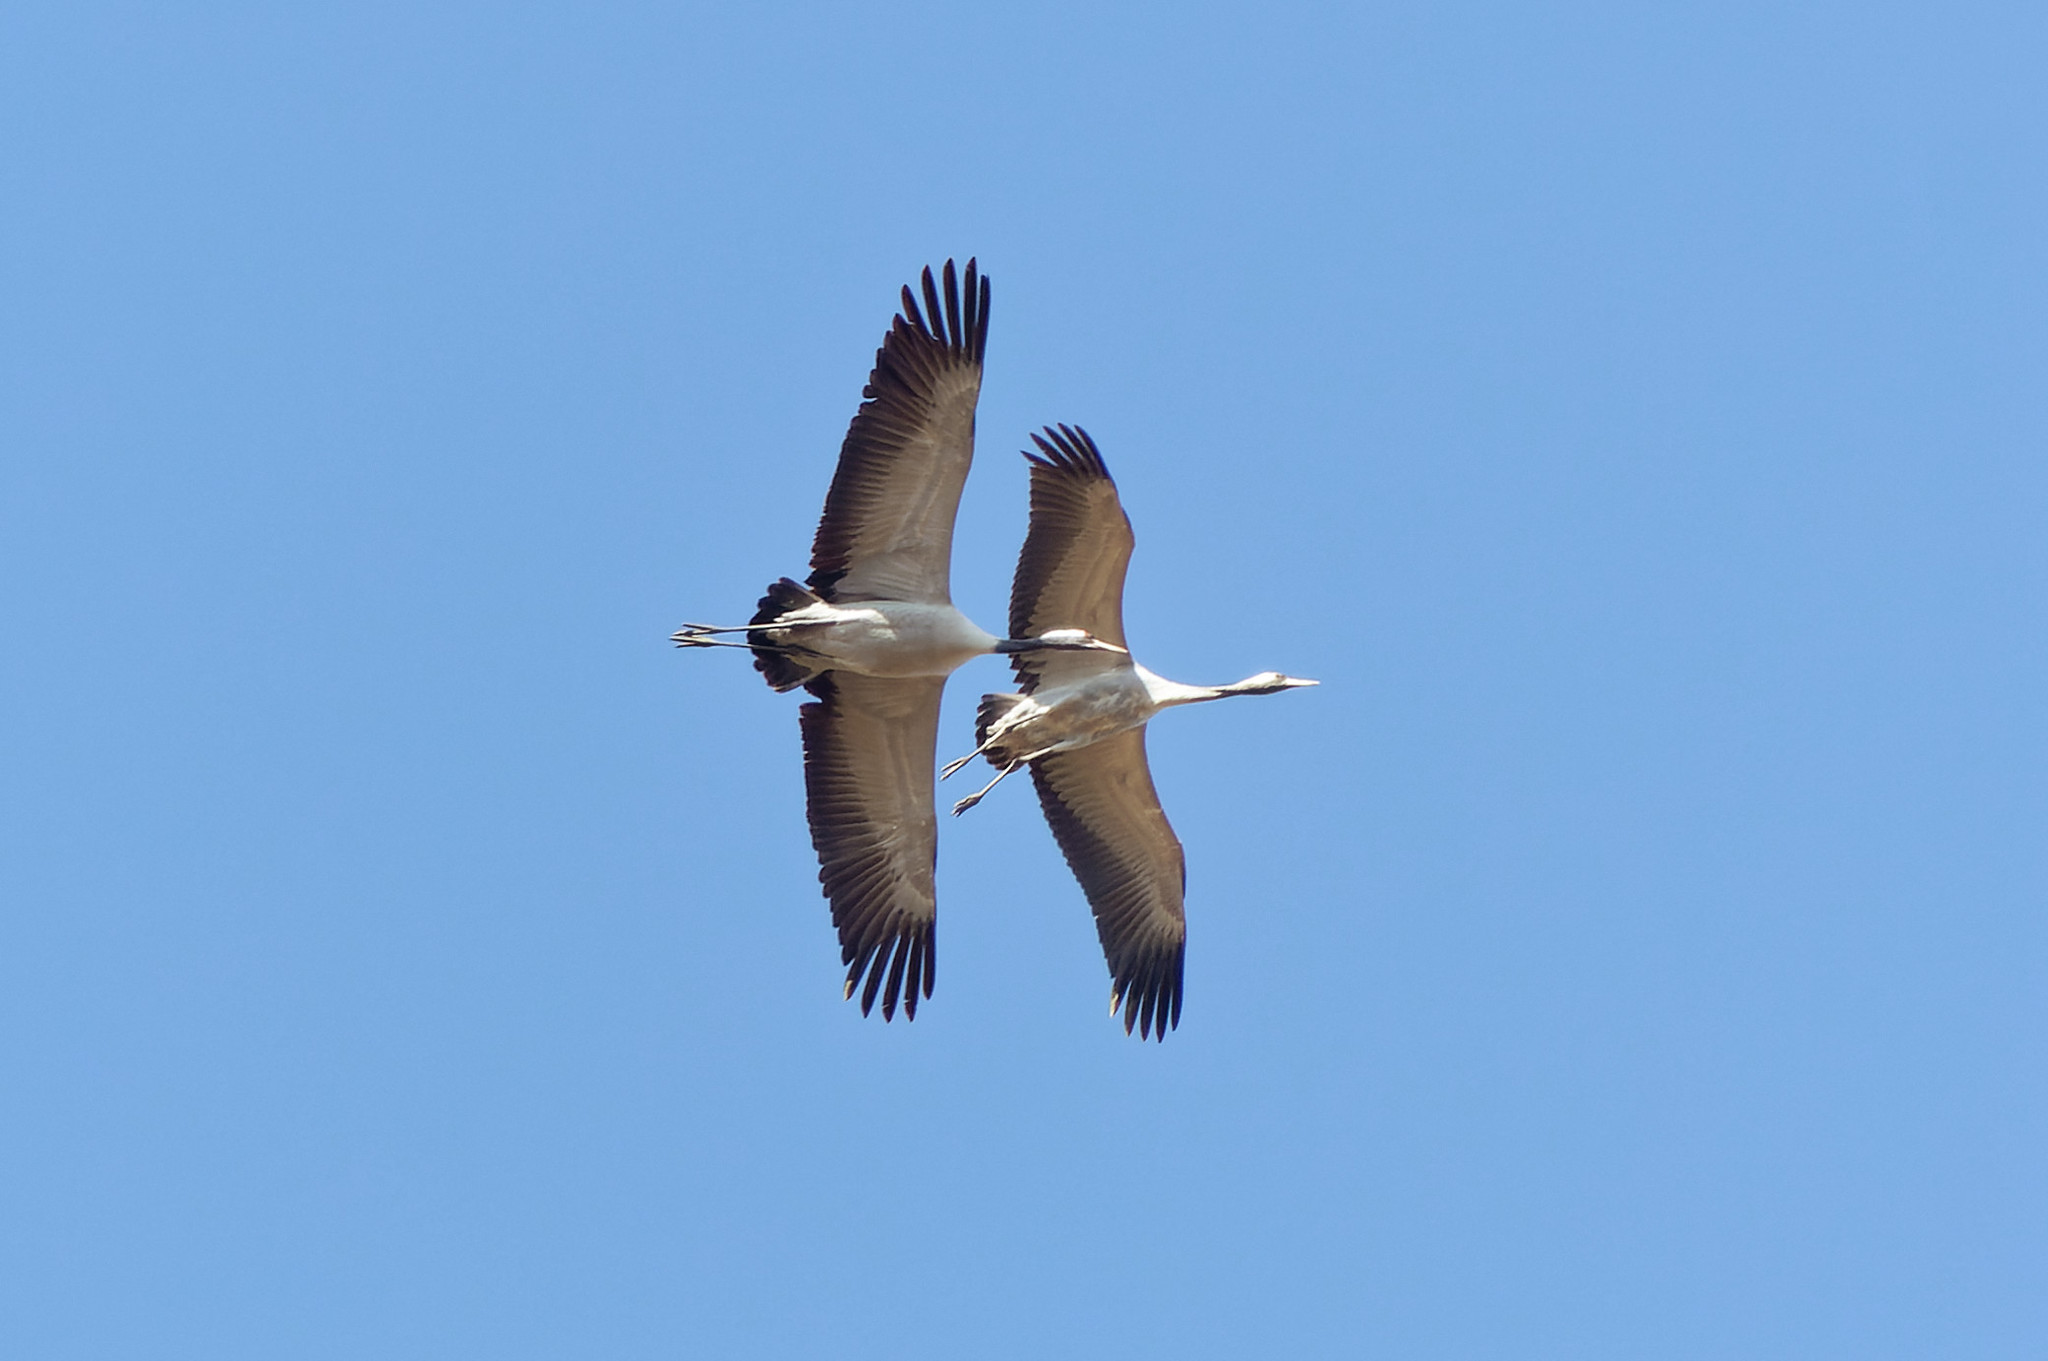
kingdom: Animalia
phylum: Chordata
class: Aves
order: Gruiformes
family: Gruidae
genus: Grus
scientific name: Grus grus
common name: Common crane
